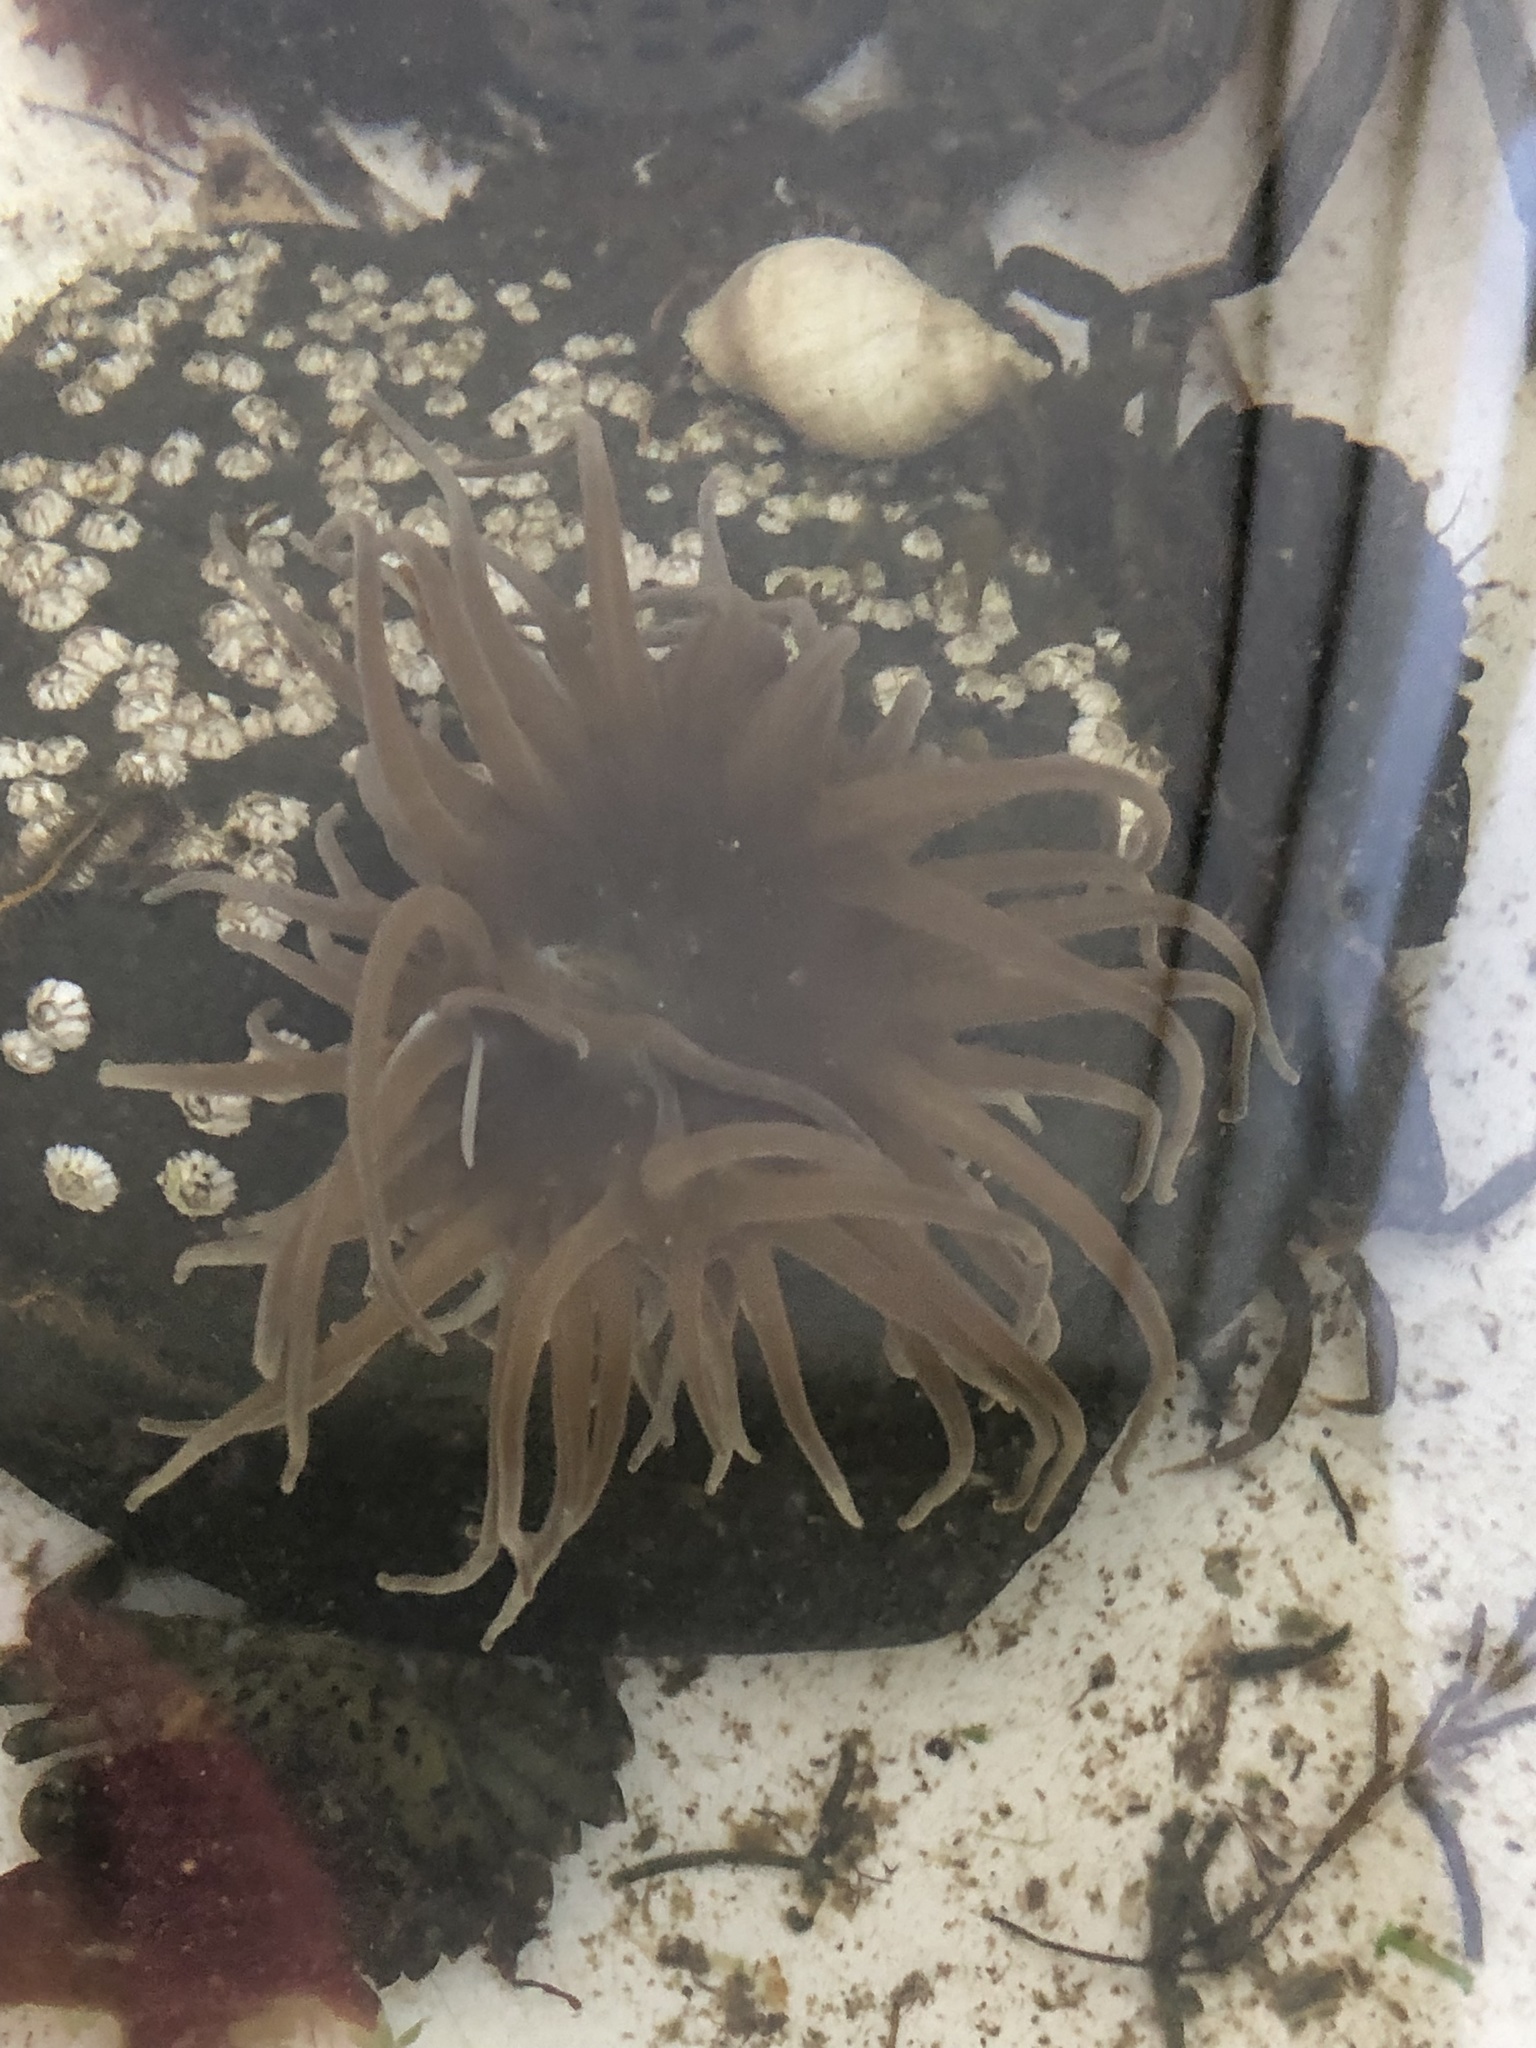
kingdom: Animalia
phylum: Cnidaria
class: Anthozoa
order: Actiniaria
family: Actiniidae
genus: Actinia
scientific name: Actinia equina
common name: Beadlet anemone
